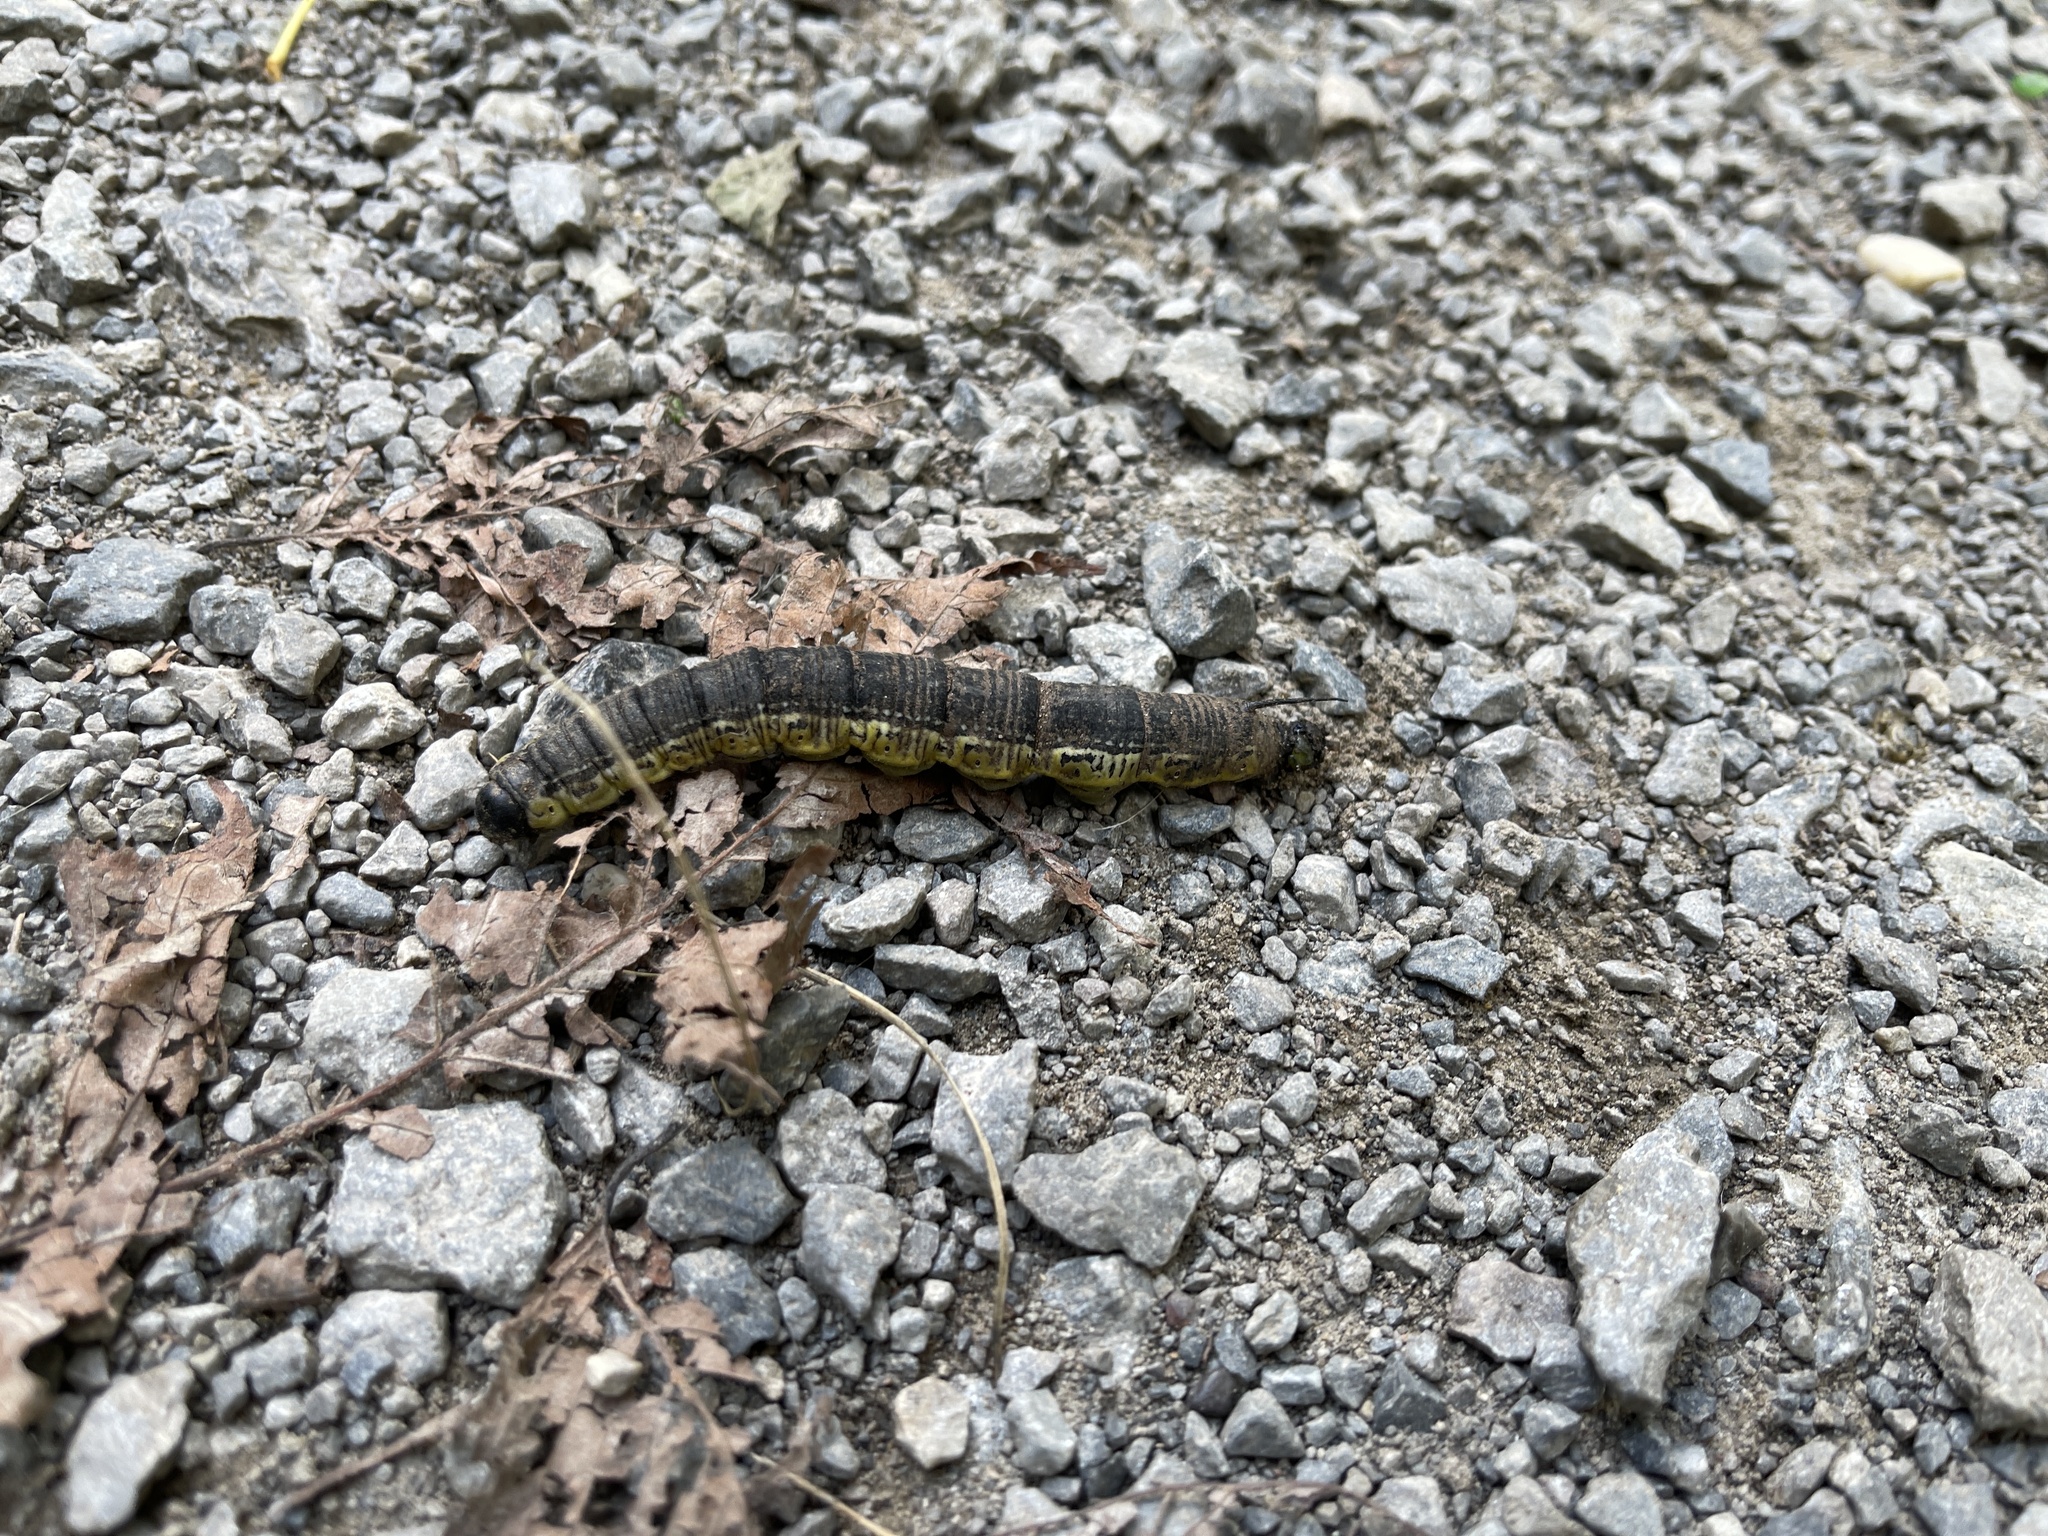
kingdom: Animalia
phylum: Arthropoda
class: Insecta
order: Lepidoptera
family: Sphingidae
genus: Ceratomia
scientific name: Ceratomia catalpae
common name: Catalpa hornworm
